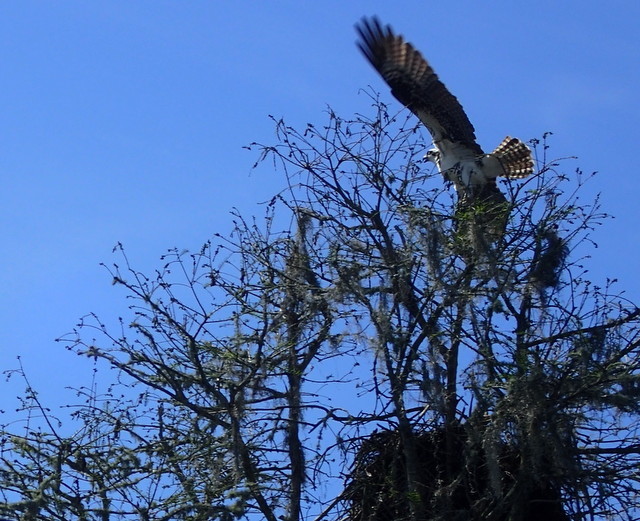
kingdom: Animalia
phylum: Chordata
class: Aves
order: Accipitriformes
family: Pandionidae
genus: Pandion
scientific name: Pandion haliaetus
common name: Osprey
